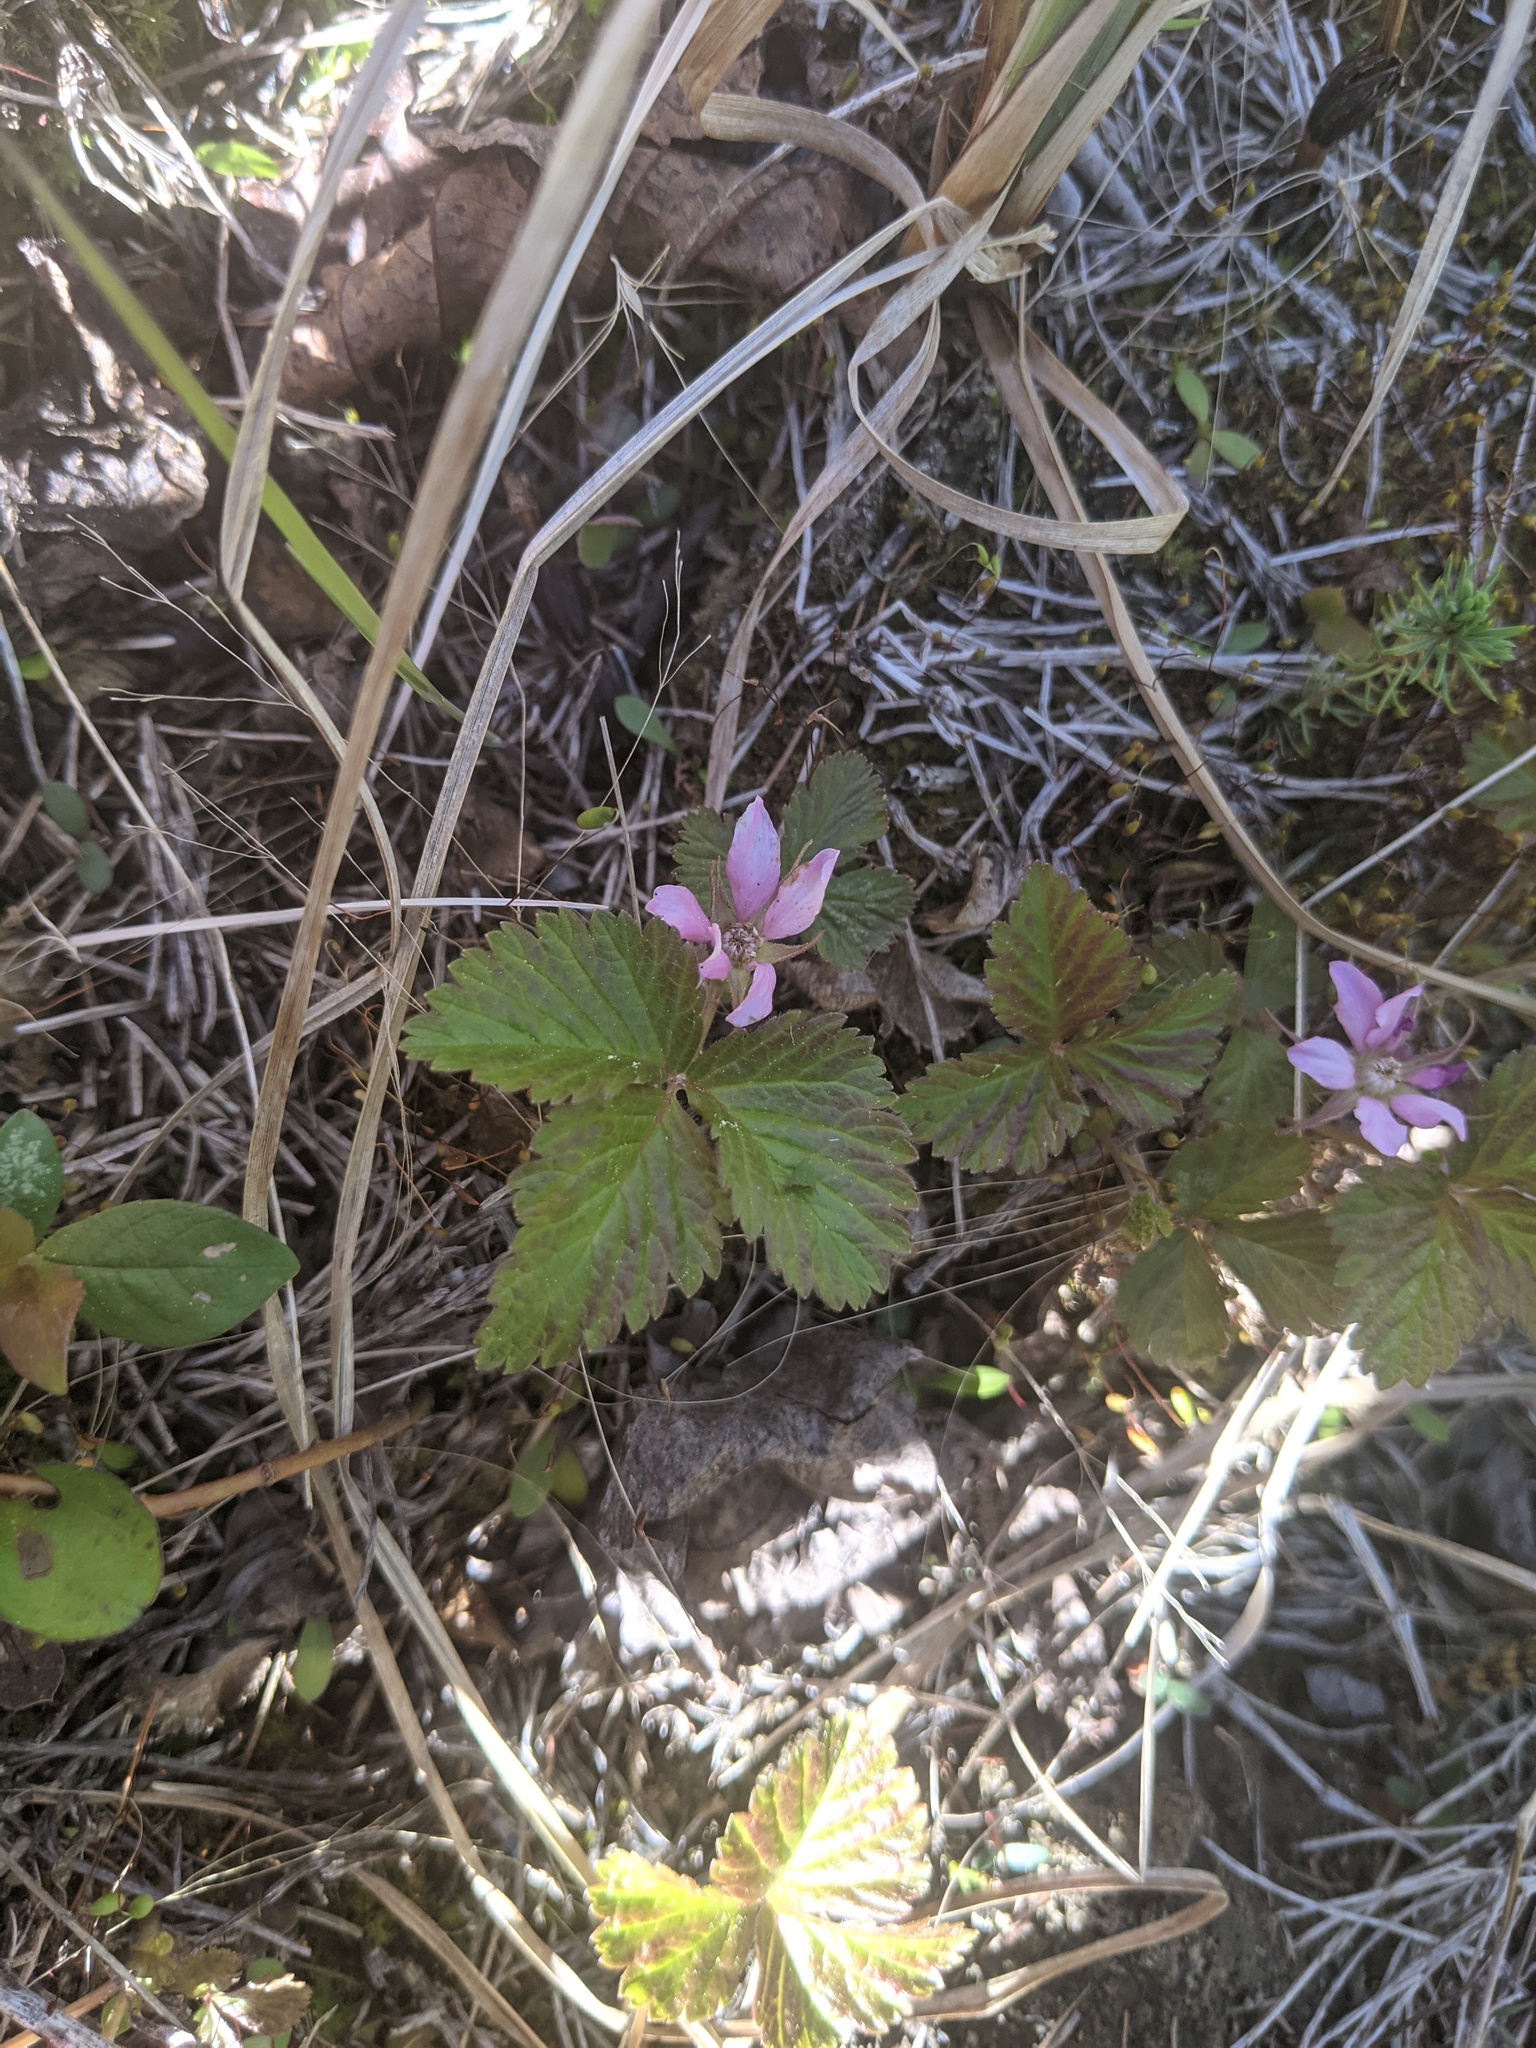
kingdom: Plantae
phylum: Tracheophyta
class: Magnoliopsida
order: Rosales
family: Rosaceae
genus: Rubus
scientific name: Rubus arcticus
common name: Arctic bramble
